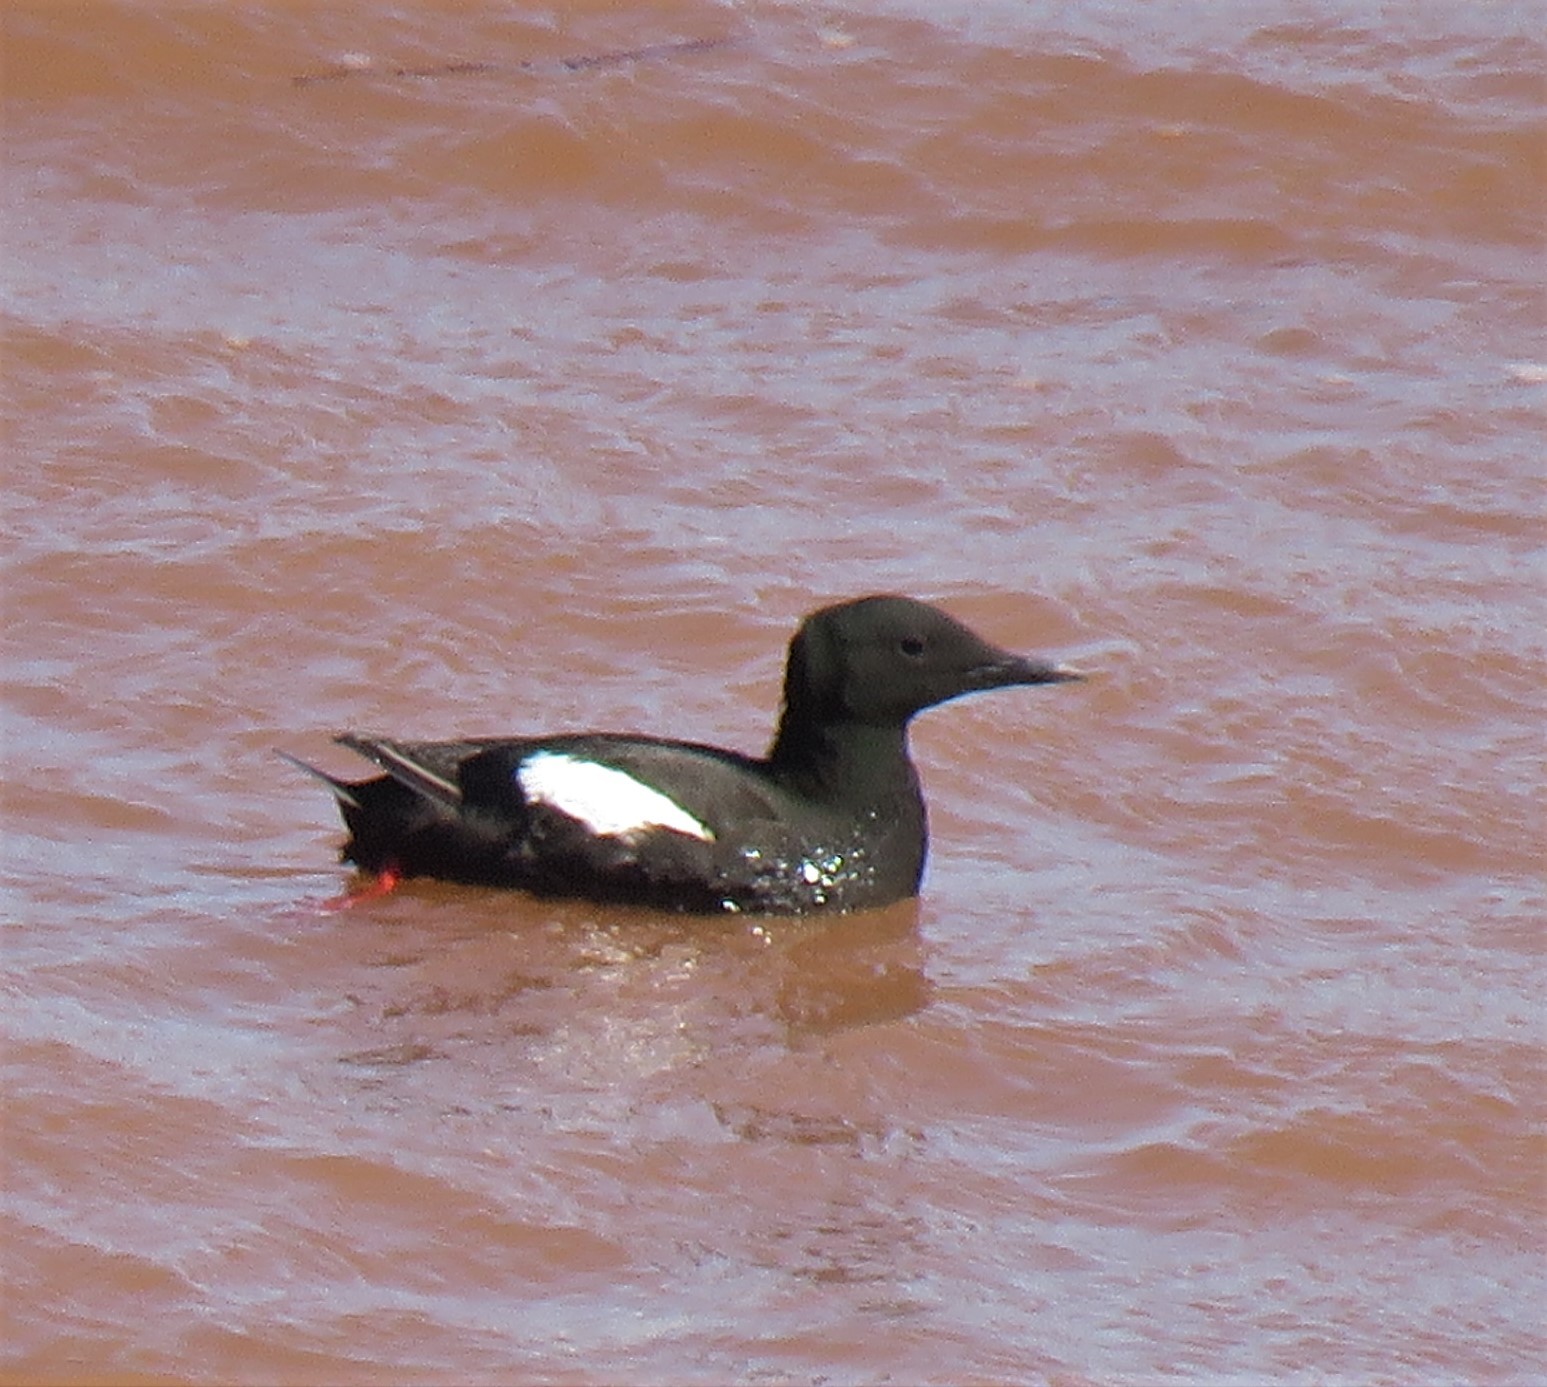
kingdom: Animalia
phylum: Chordata
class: Aves
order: Charadriiformes
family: Alcidae
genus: Cepphus
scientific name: Cepphus grylle
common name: Black guillemot
